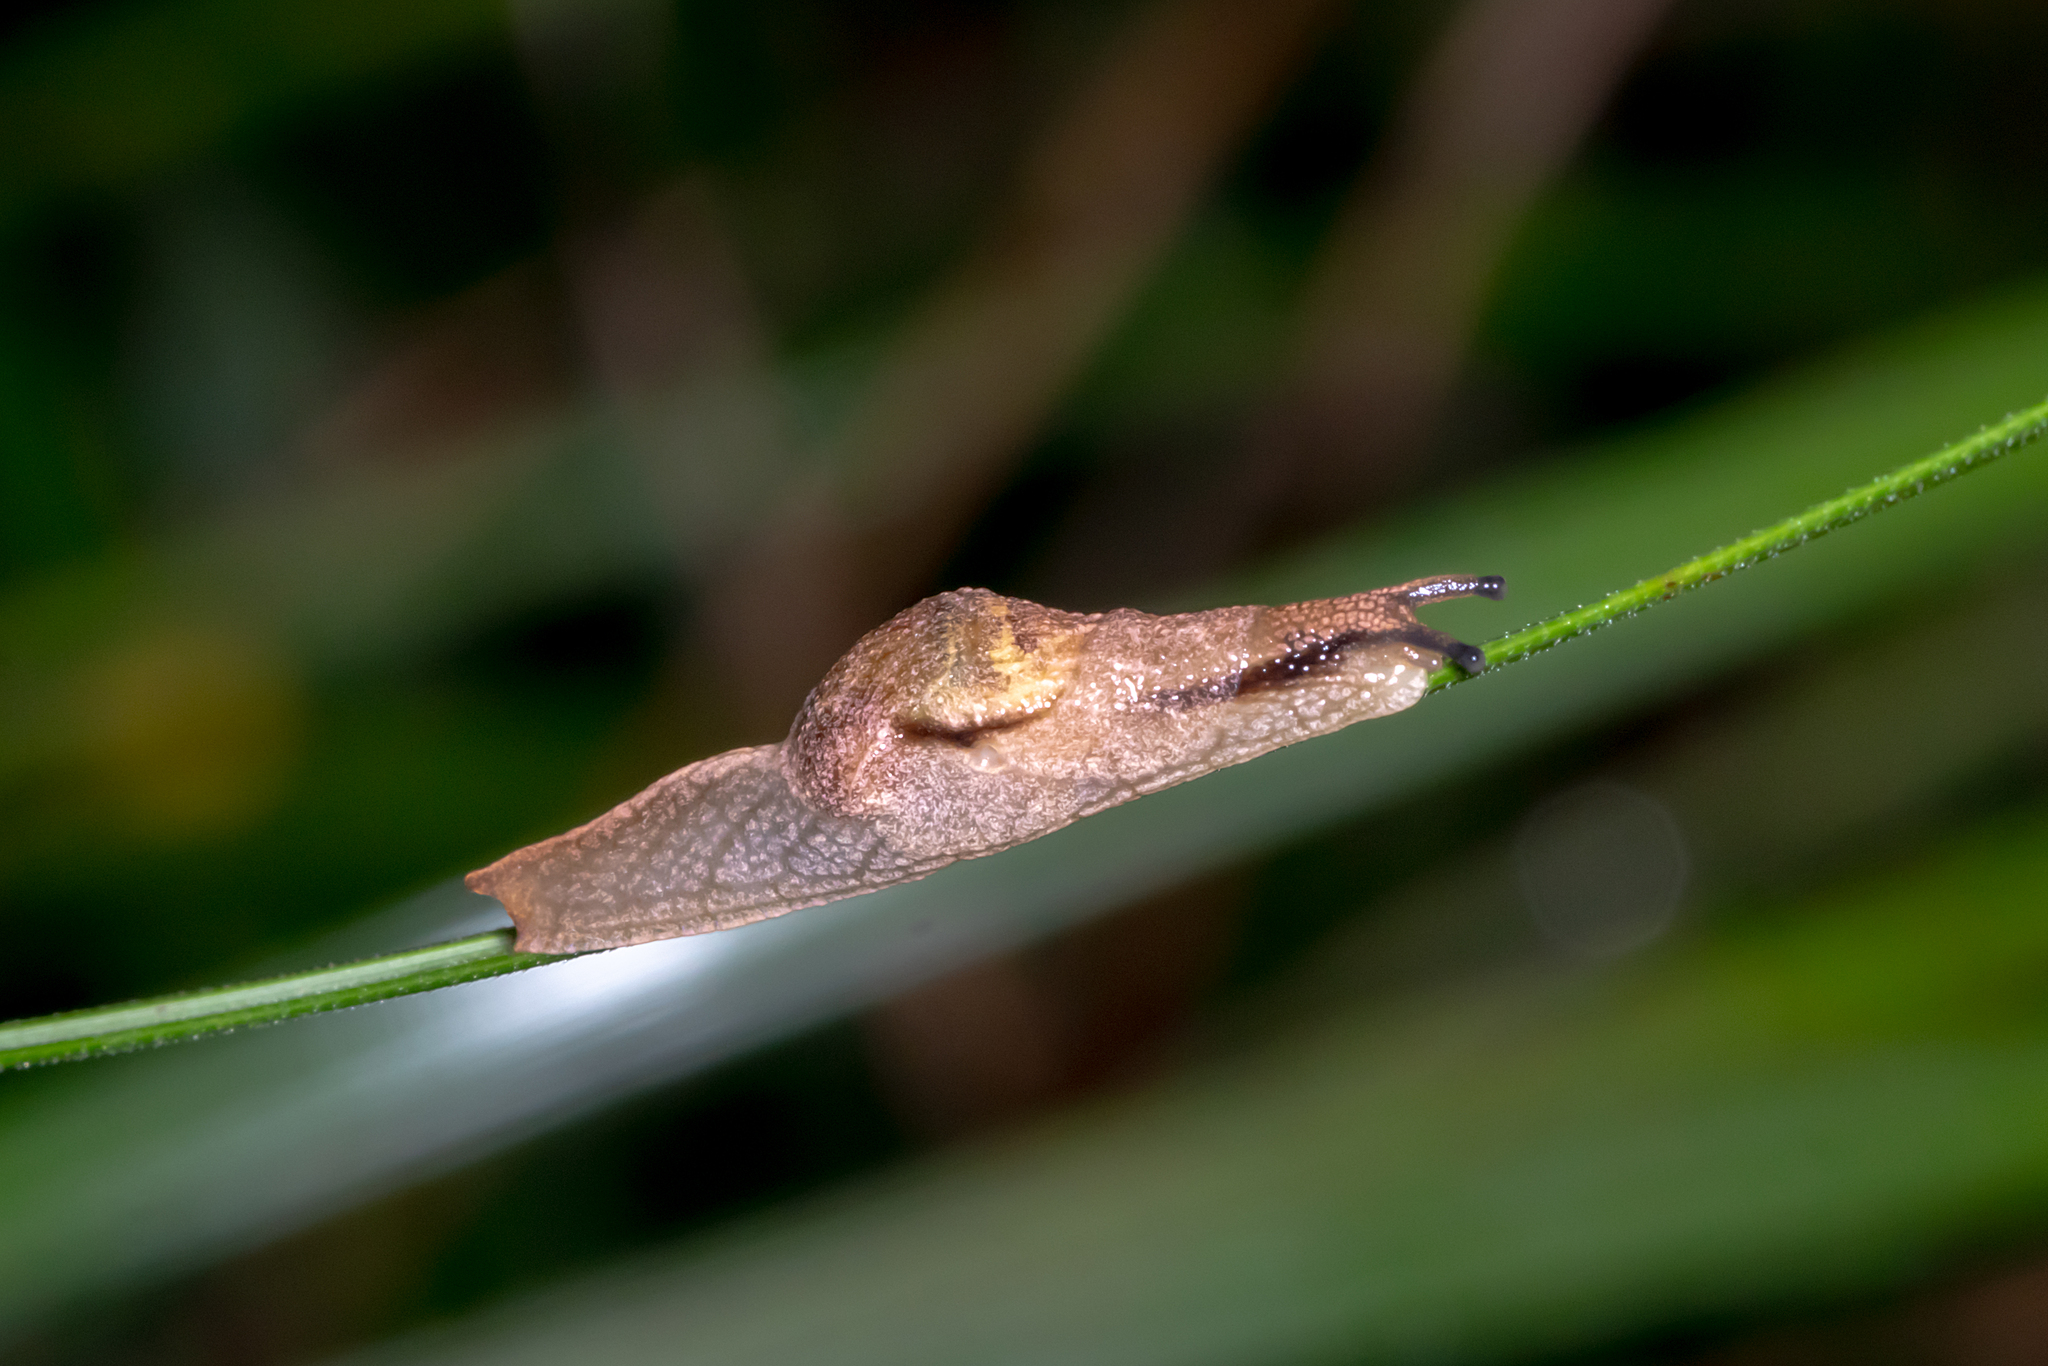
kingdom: Animalia
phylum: Mollusca
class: Gastropoda
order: Stylommatophora
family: Helicarionidae
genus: Ubiquitarion
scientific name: Ubiquitarion iridis
